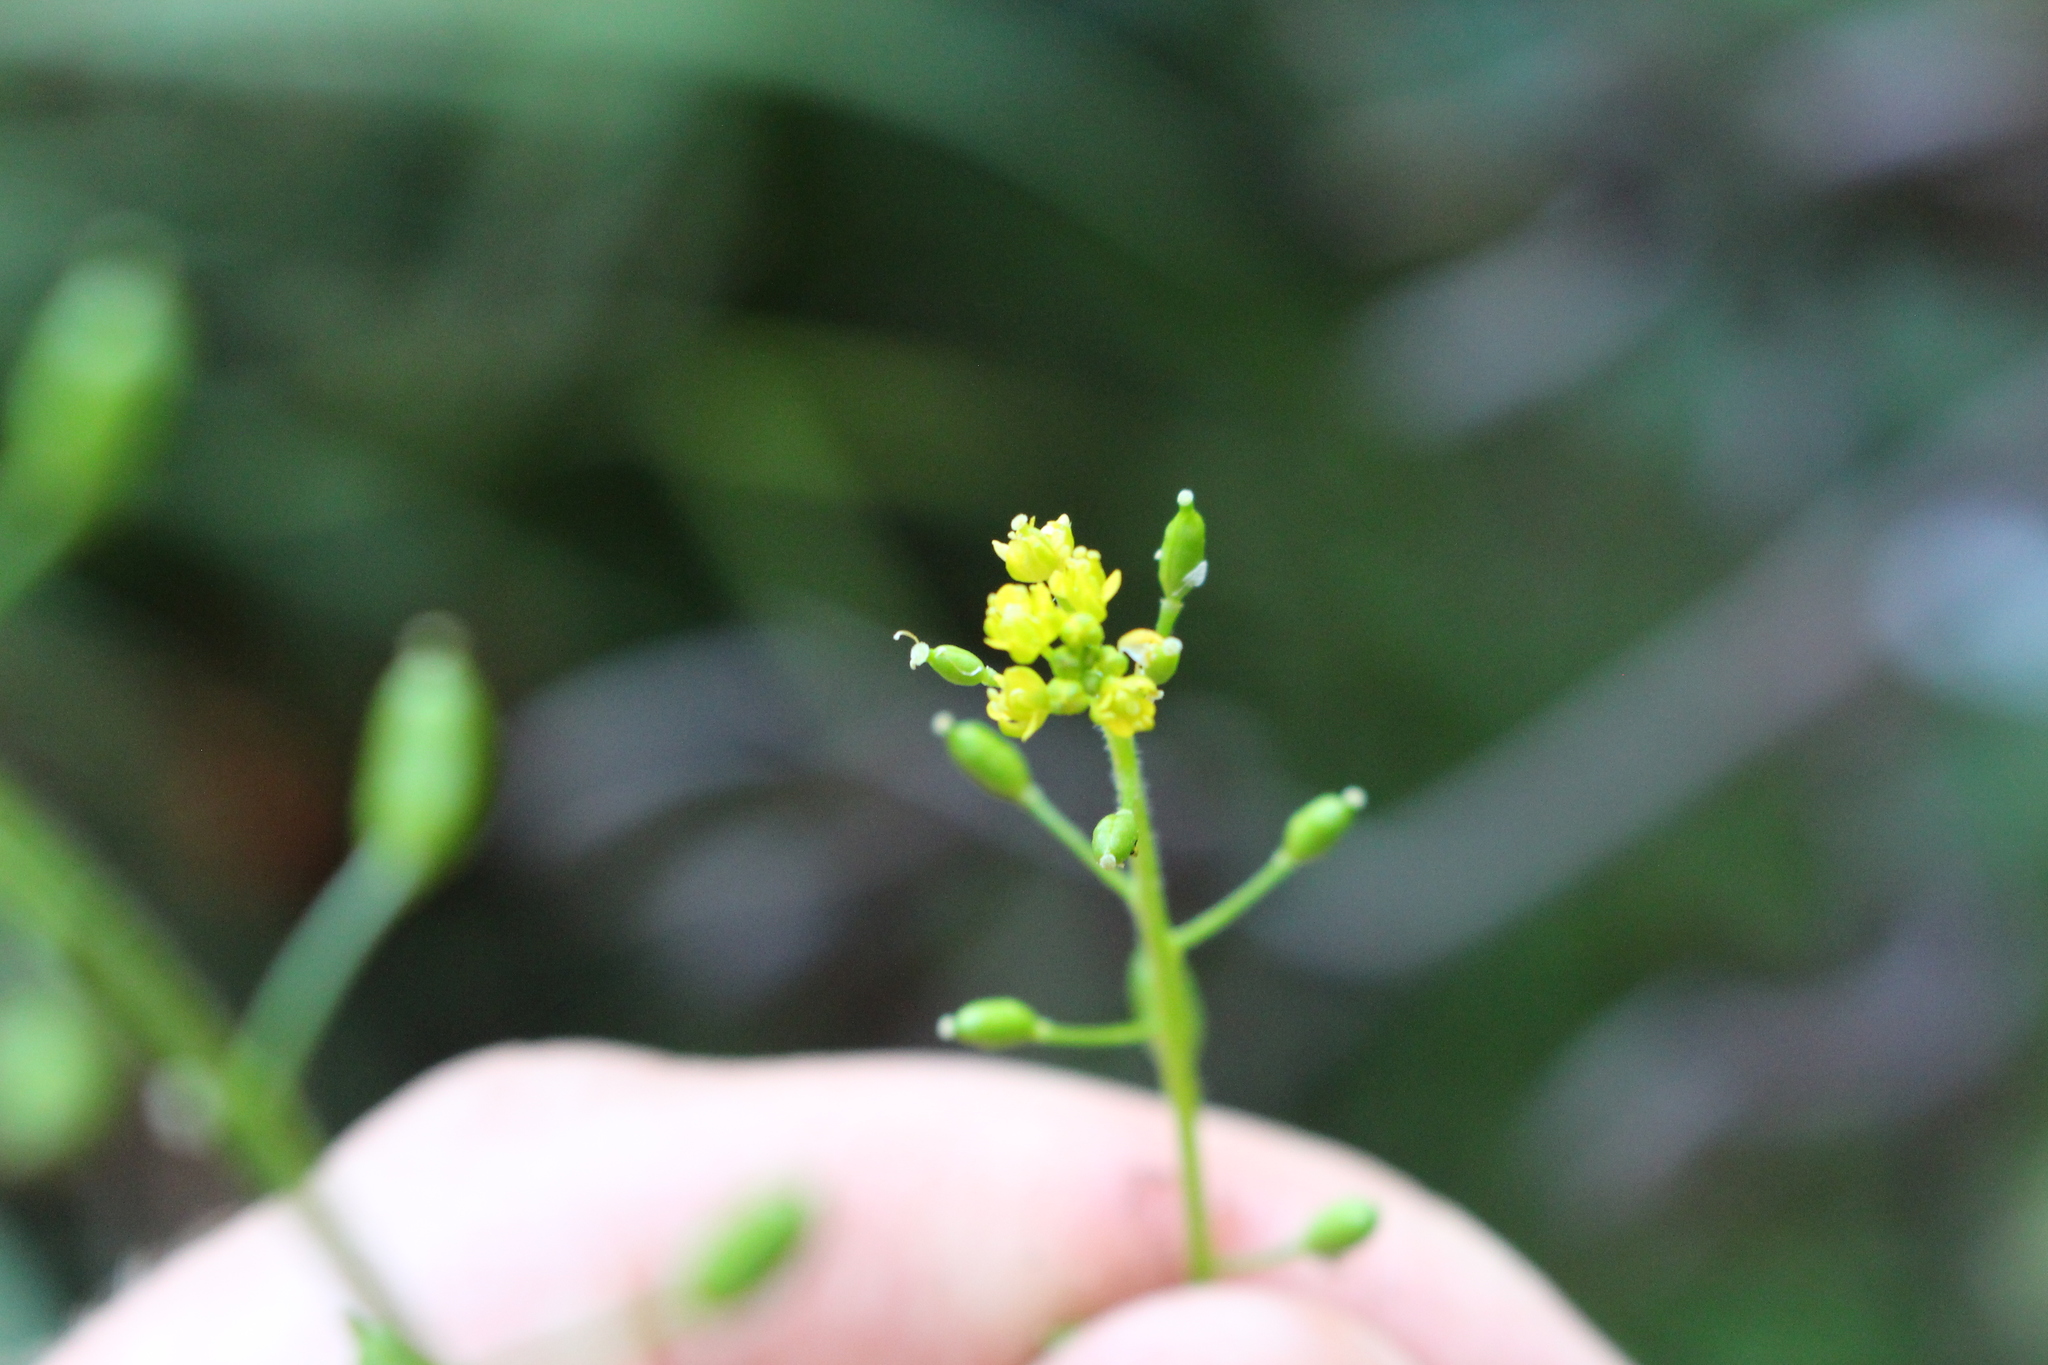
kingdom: Plantae
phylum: Tracheophyta
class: Magnoliopsida
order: Brassicales
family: Brassicaceae
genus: Rorippa
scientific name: Rorippa palustris
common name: Marsh yellow-cress
